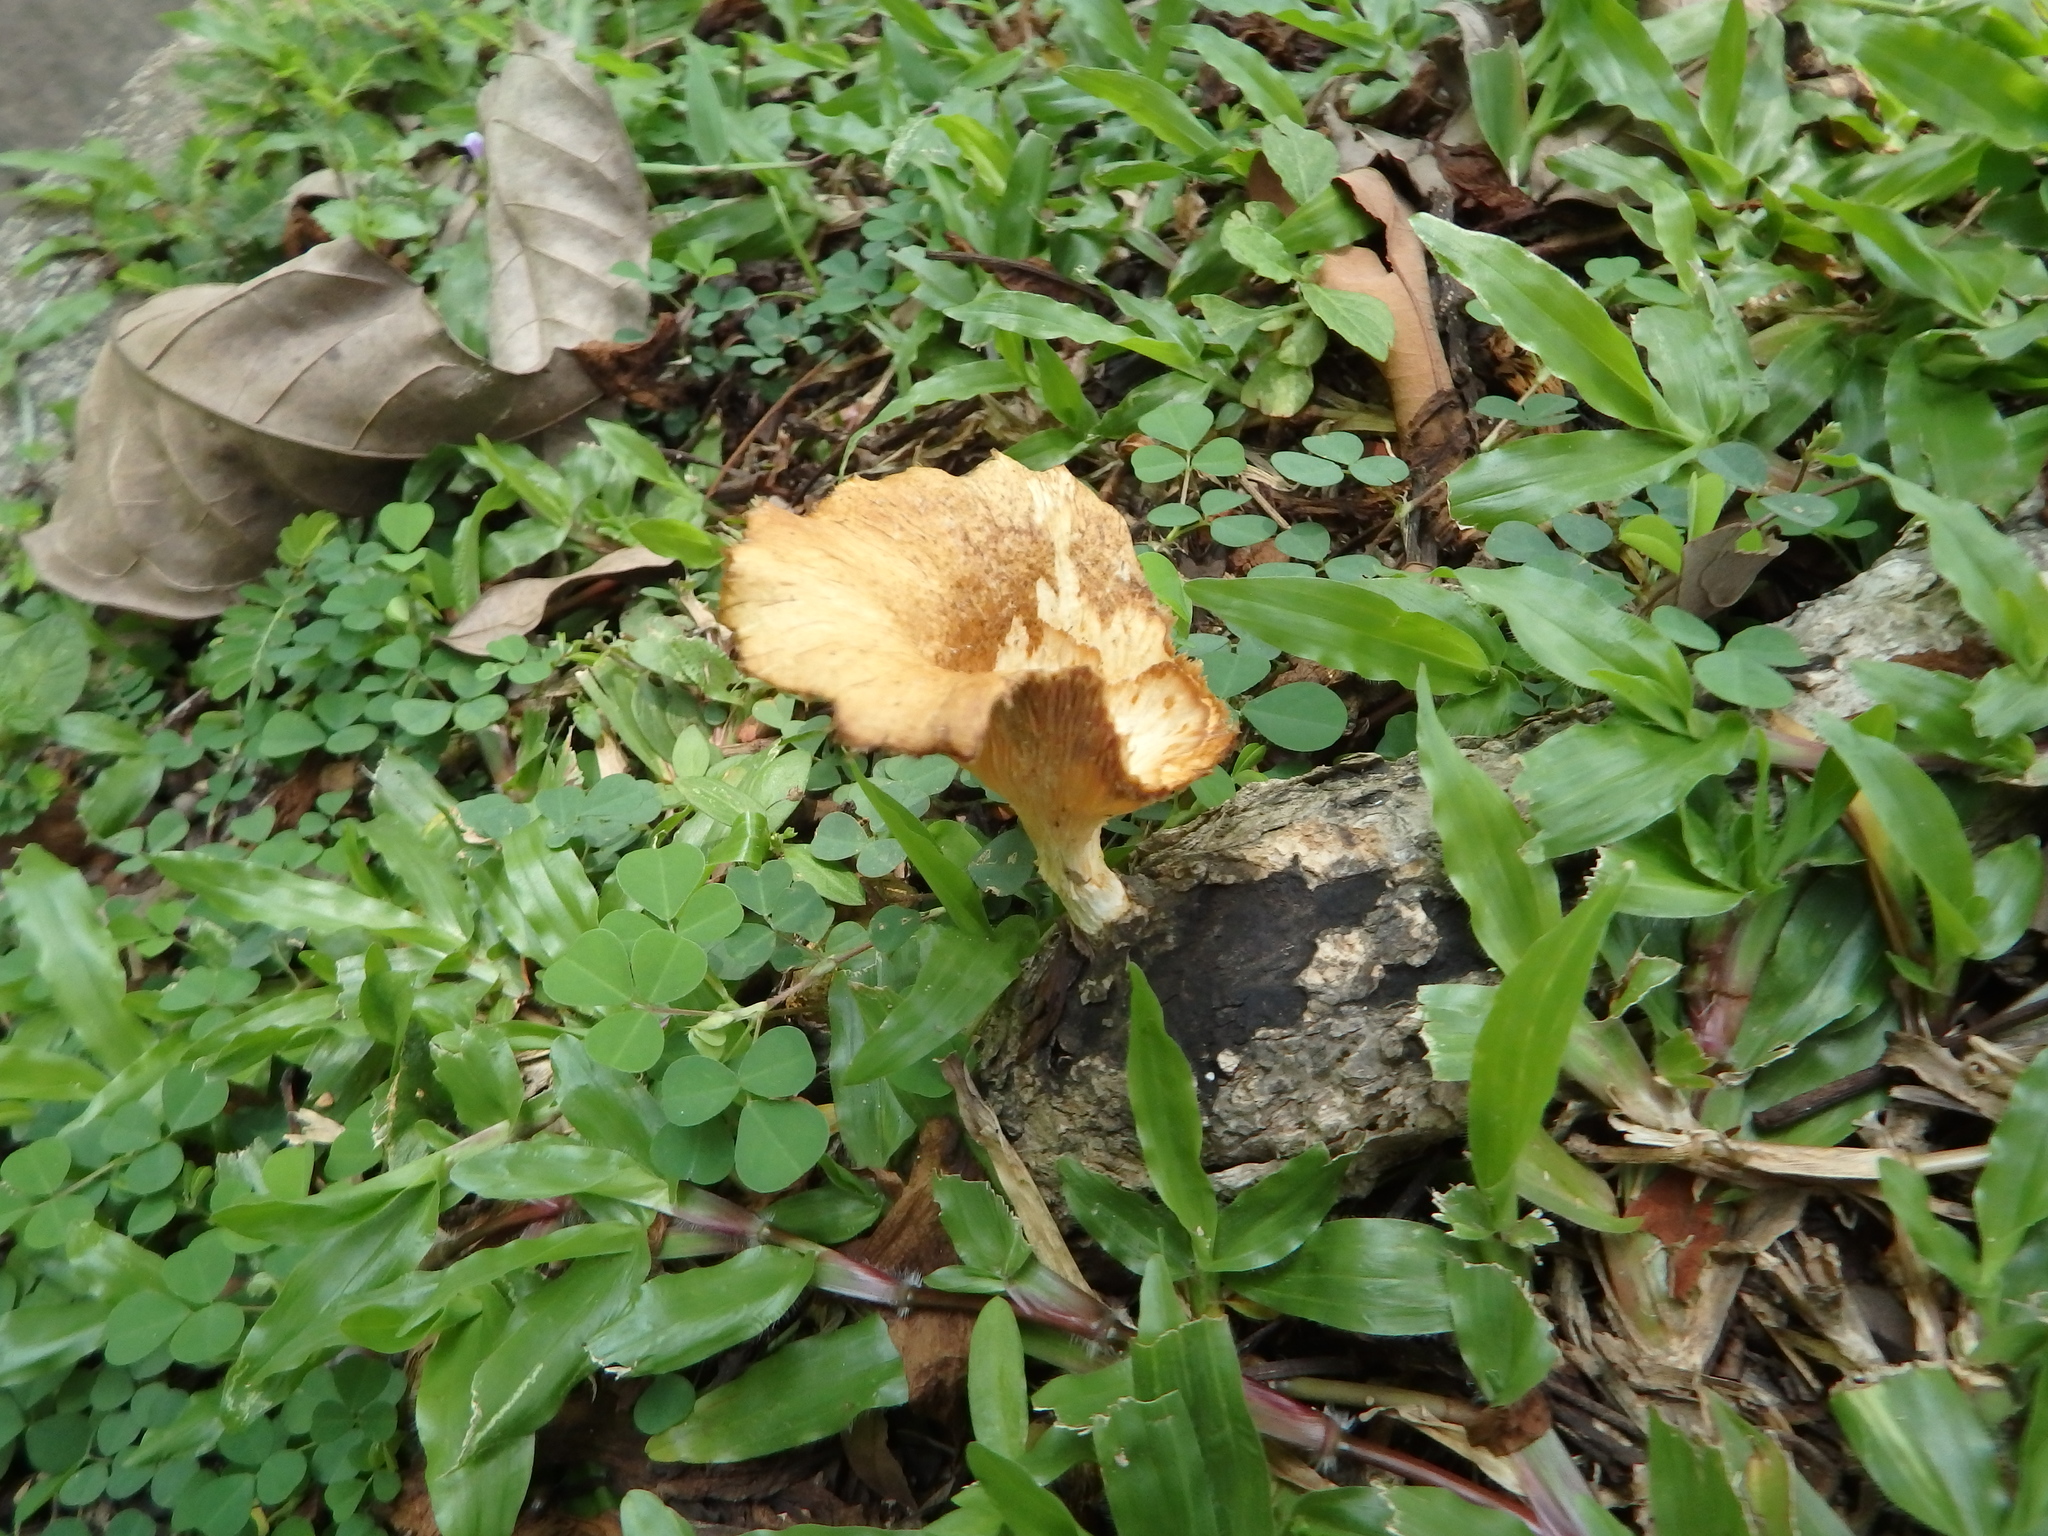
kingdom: Fungi
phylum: Basidiomycota
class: Agaricomycetes
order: Polyporales
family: Polyporaceae
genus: Lentinus
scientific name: Lentinus sajor-caju
